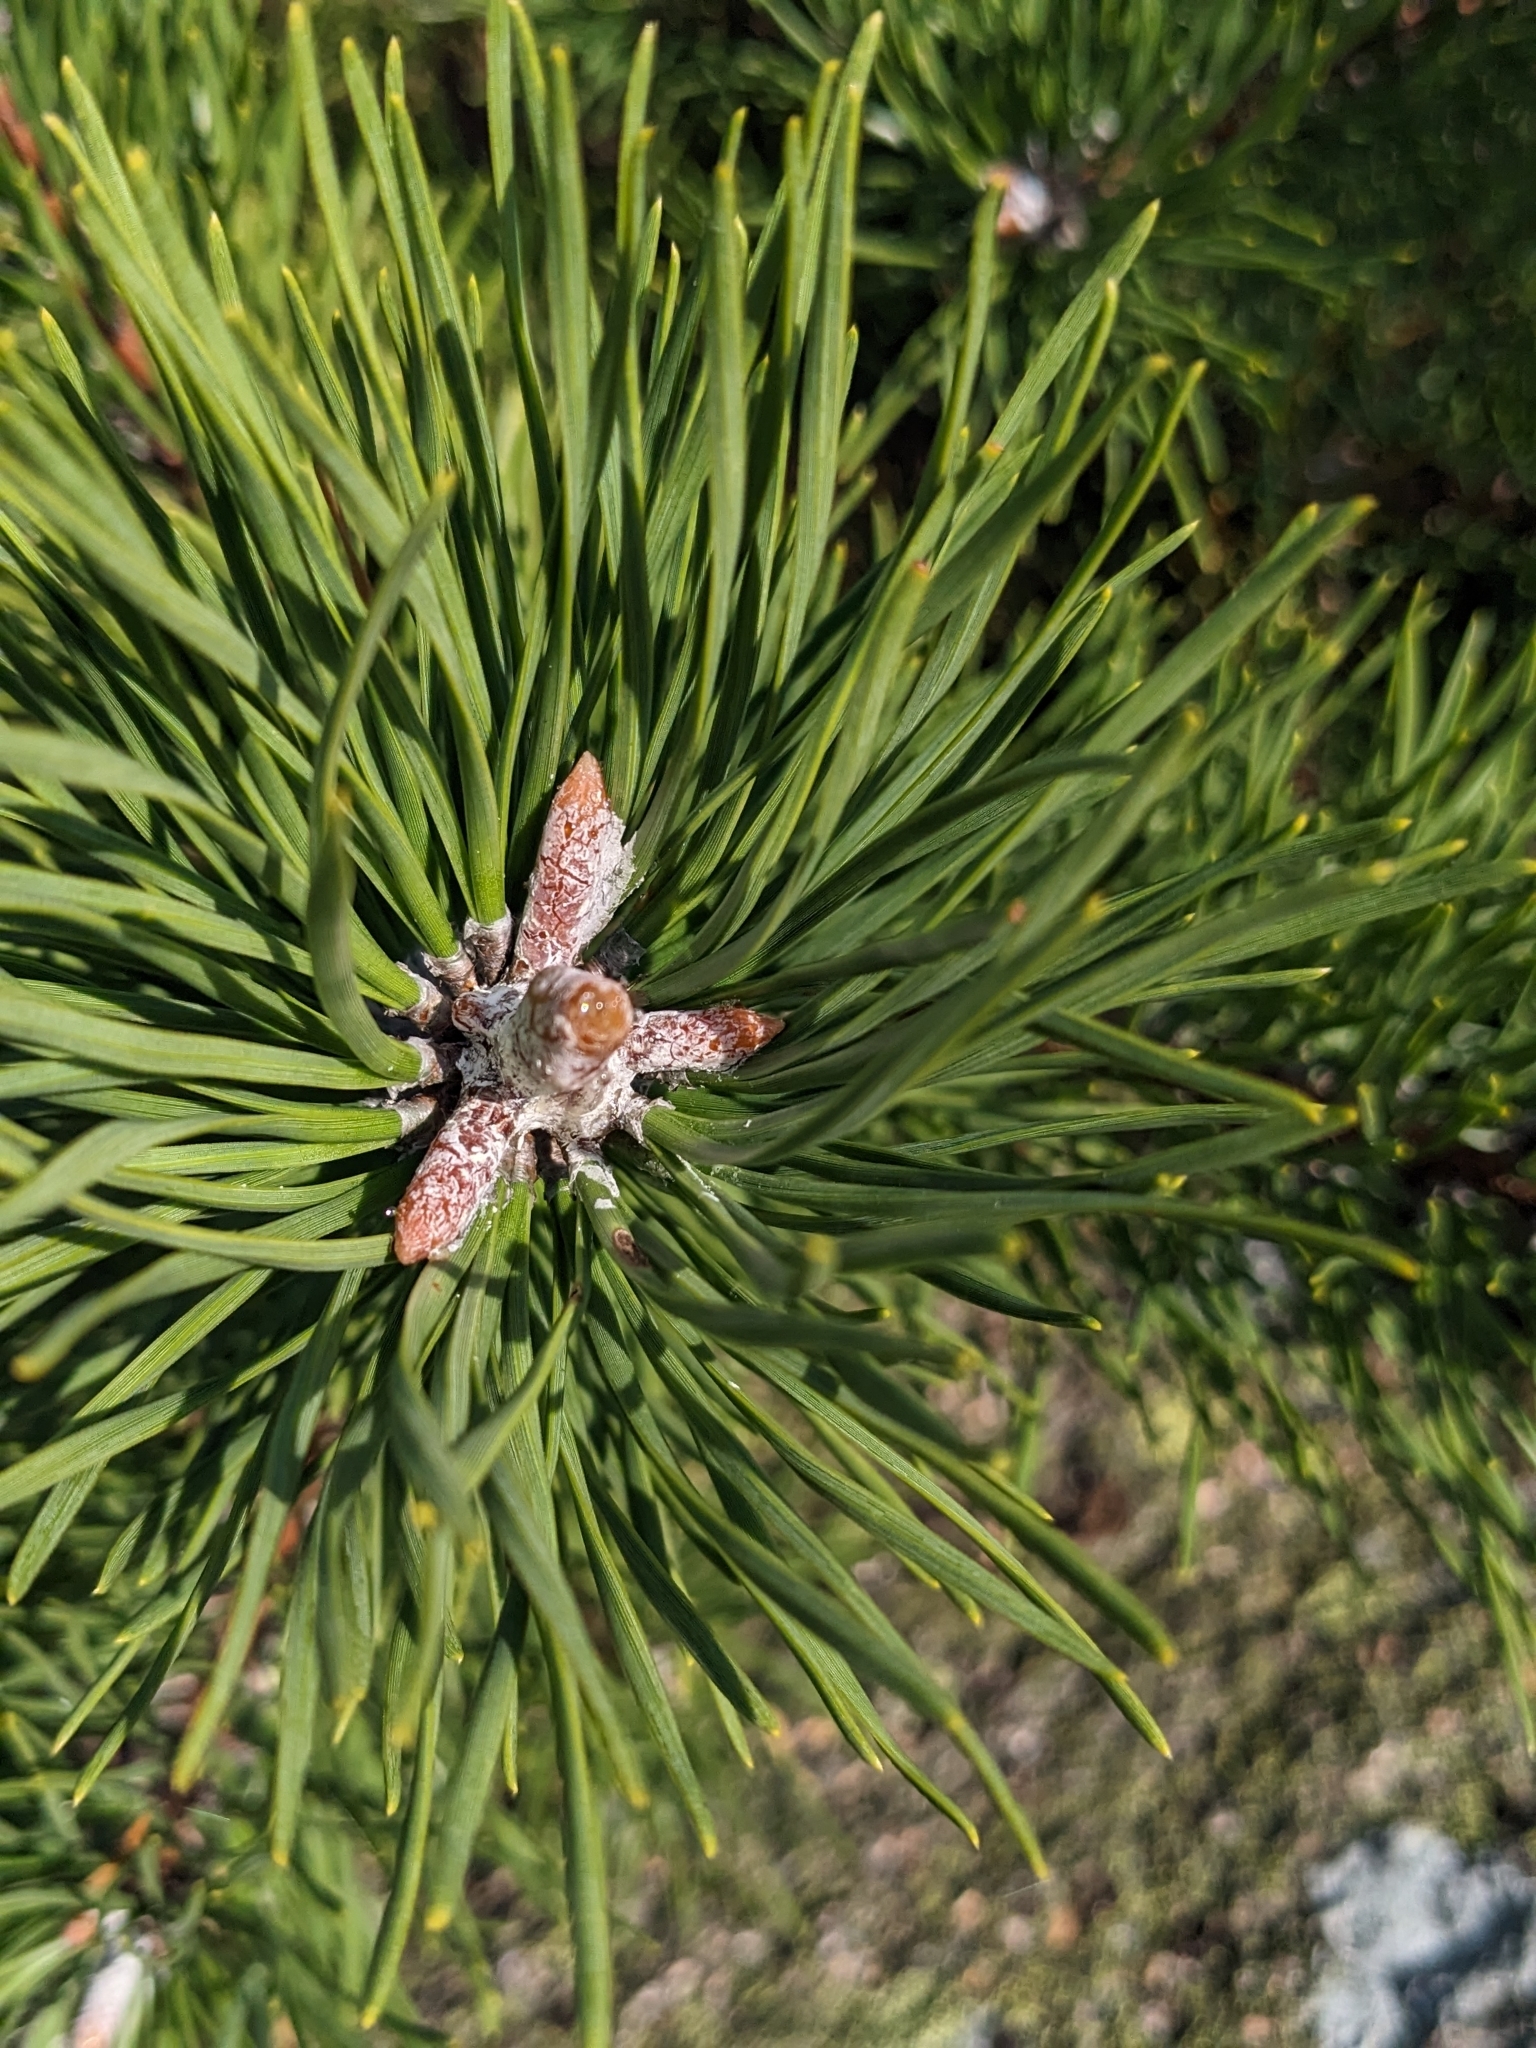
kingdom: Plantae
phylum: Tracheophyta
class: Pinopsida
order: Pinales
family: Pinaceae
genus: Pinus
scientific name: Pinus rigida
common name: Pitch pine
